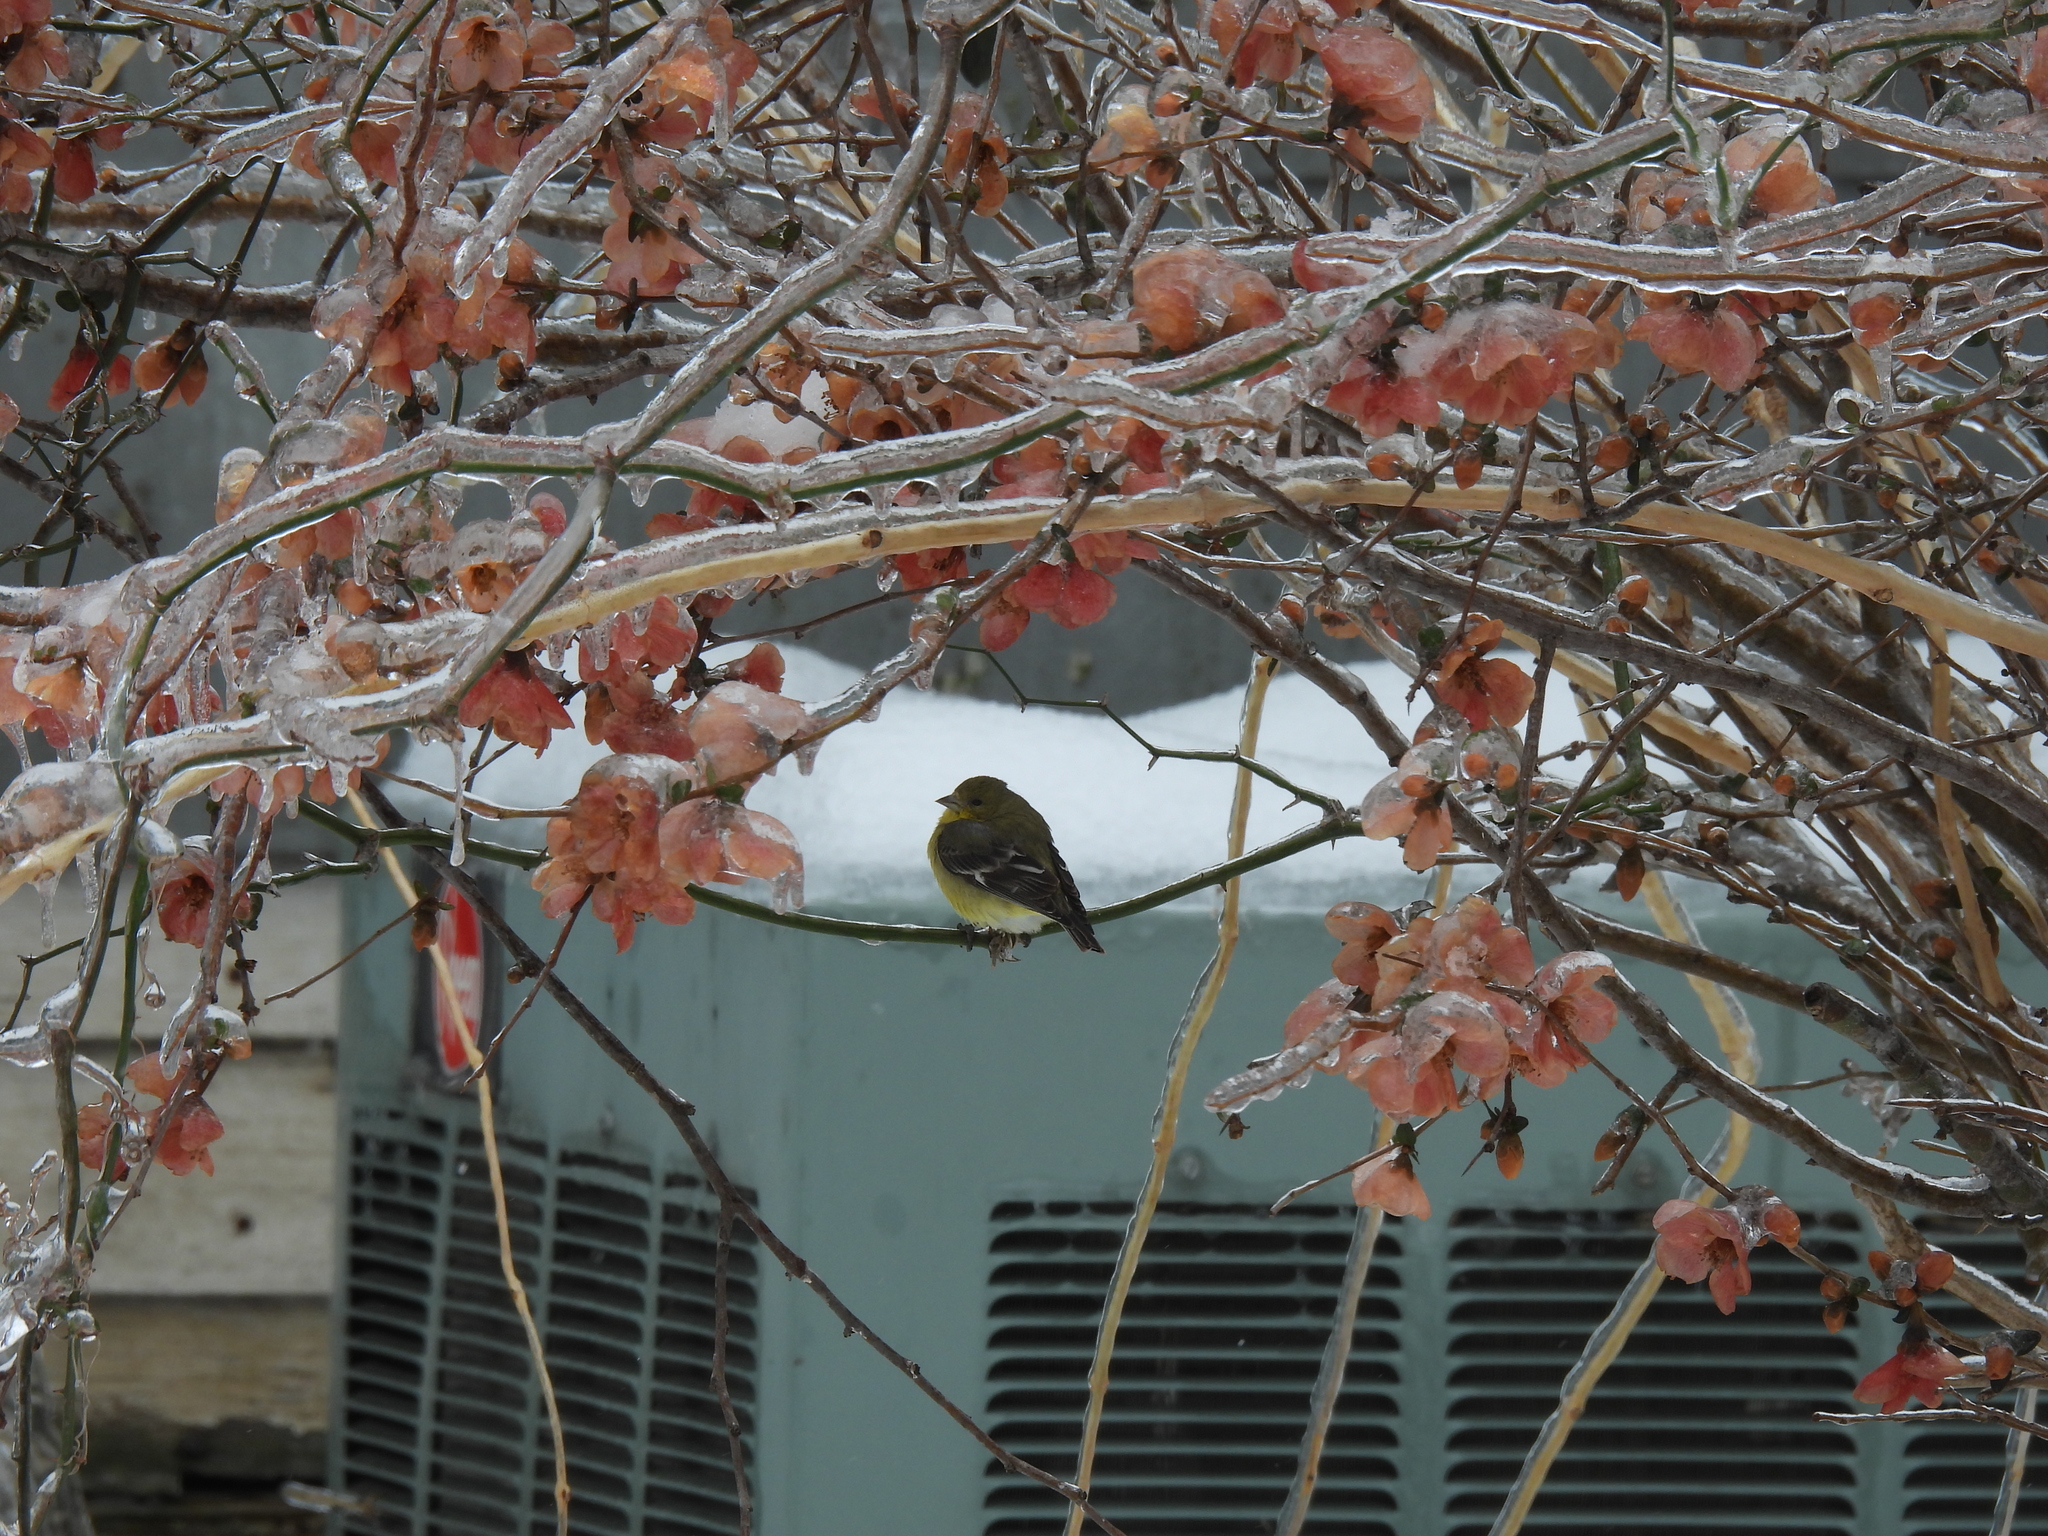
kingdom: Animalia
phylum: Chordata
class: Aves
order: Passeriformes
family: Fringillidae
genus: Spinus
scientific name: Spinus tristis
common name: American goldfinch
